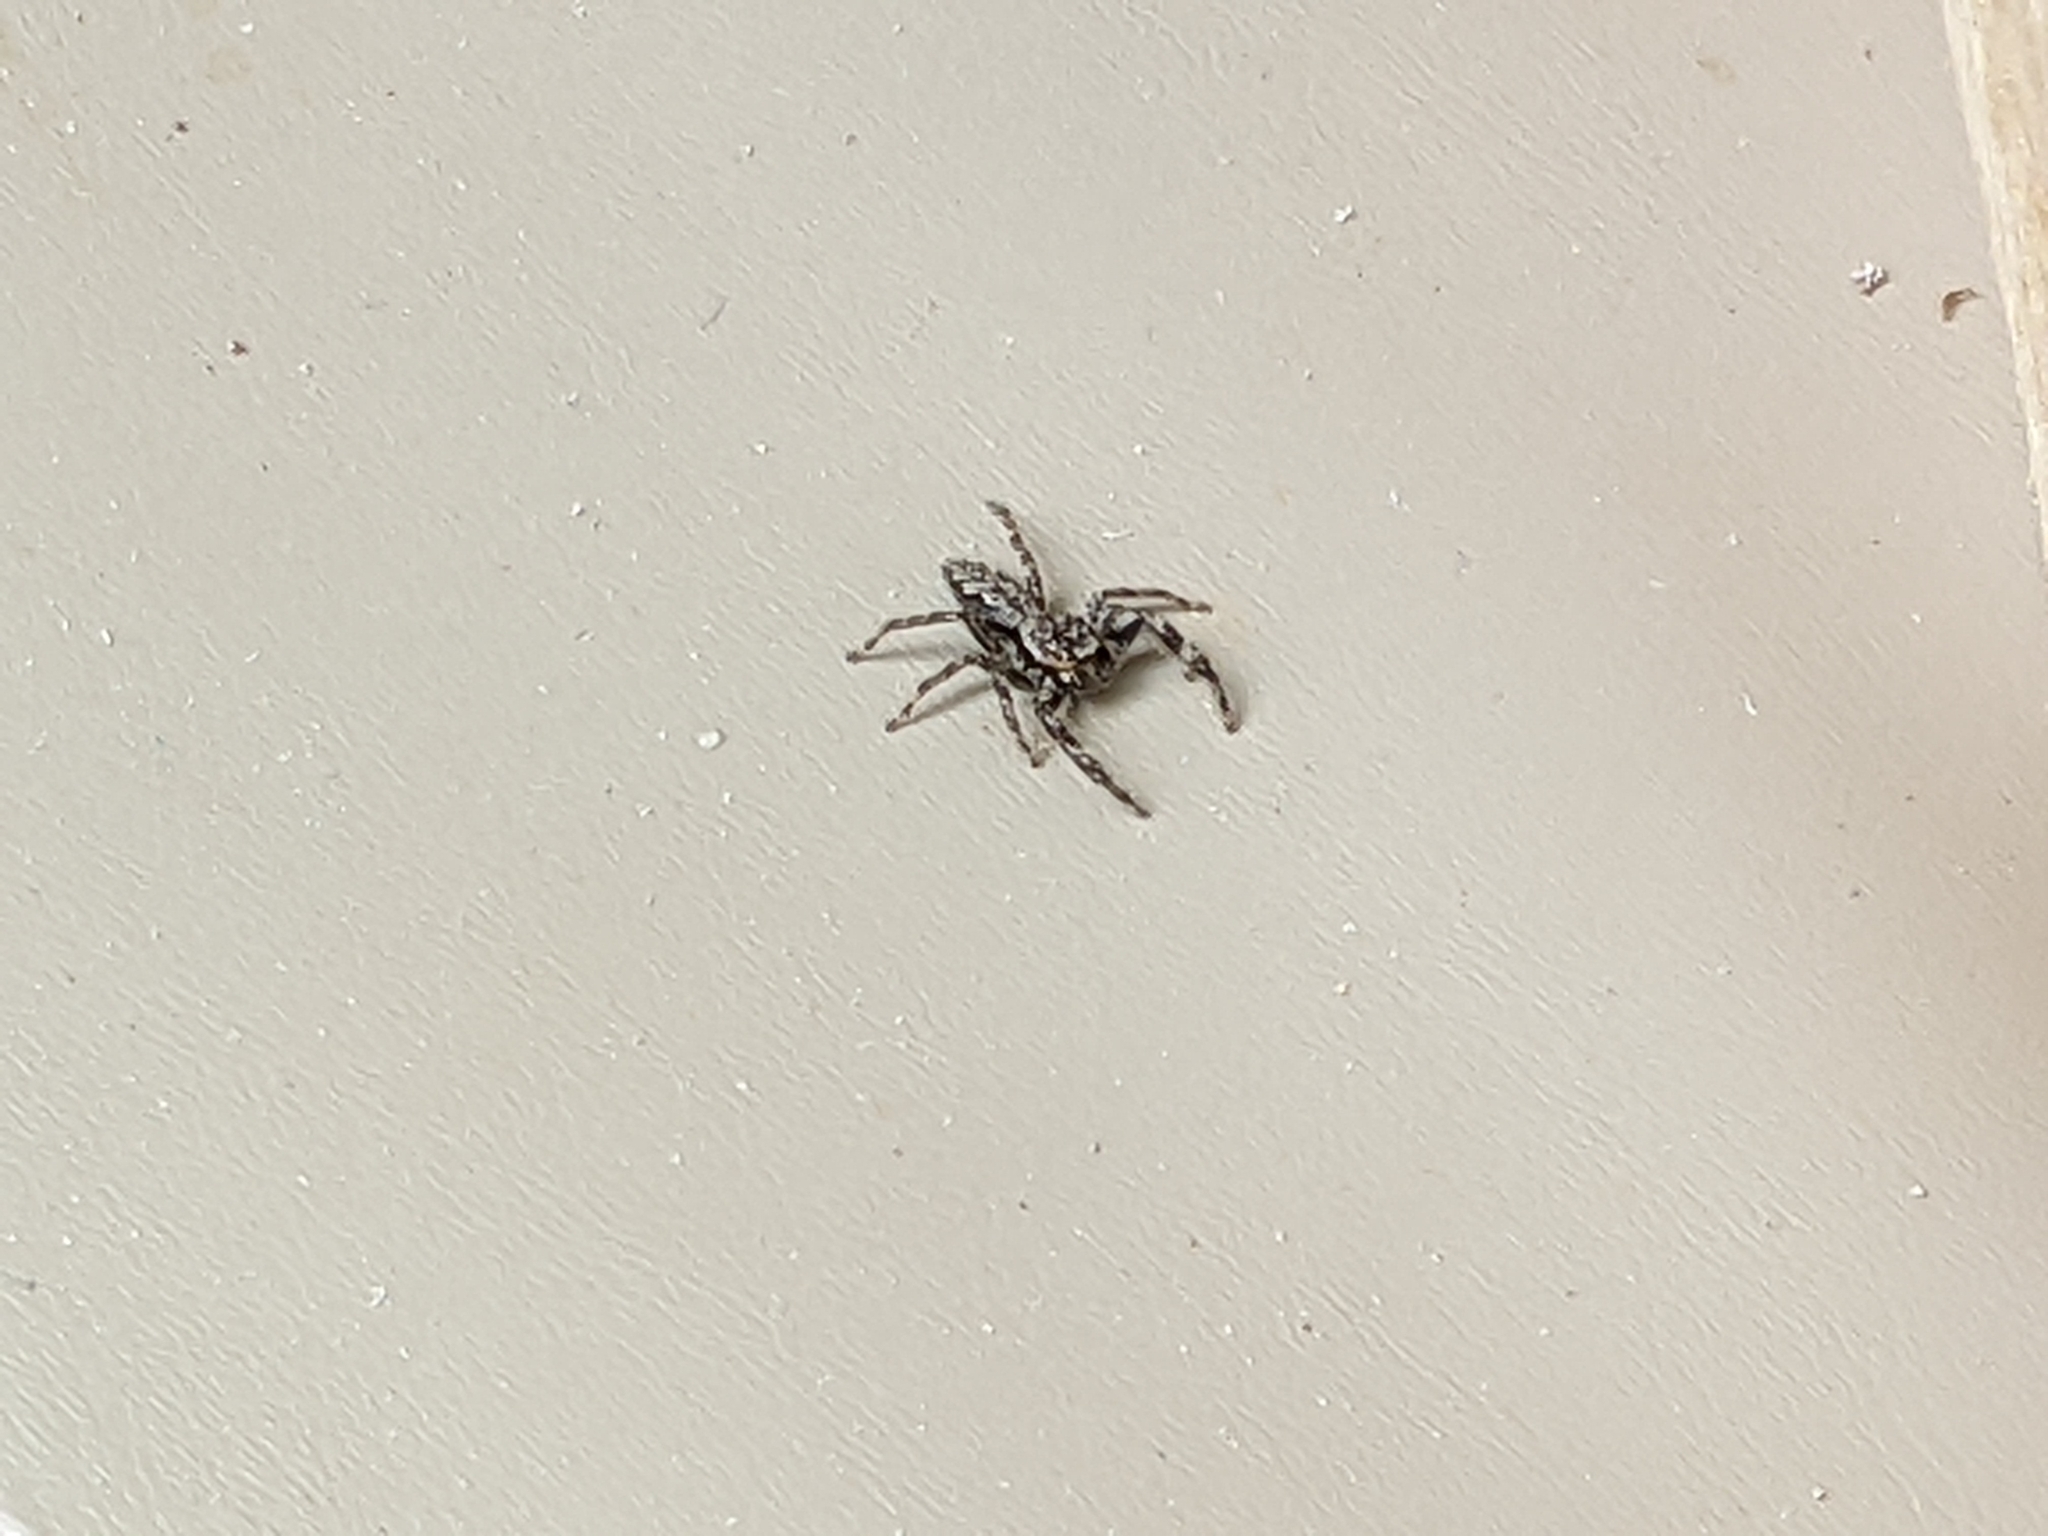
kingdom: Animalia
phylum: Arthropoda
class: Arachnida
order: Araneae
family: Salticidae
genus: Platycryptus
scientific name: Platycryptus undatus
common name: Tan jumping spider
